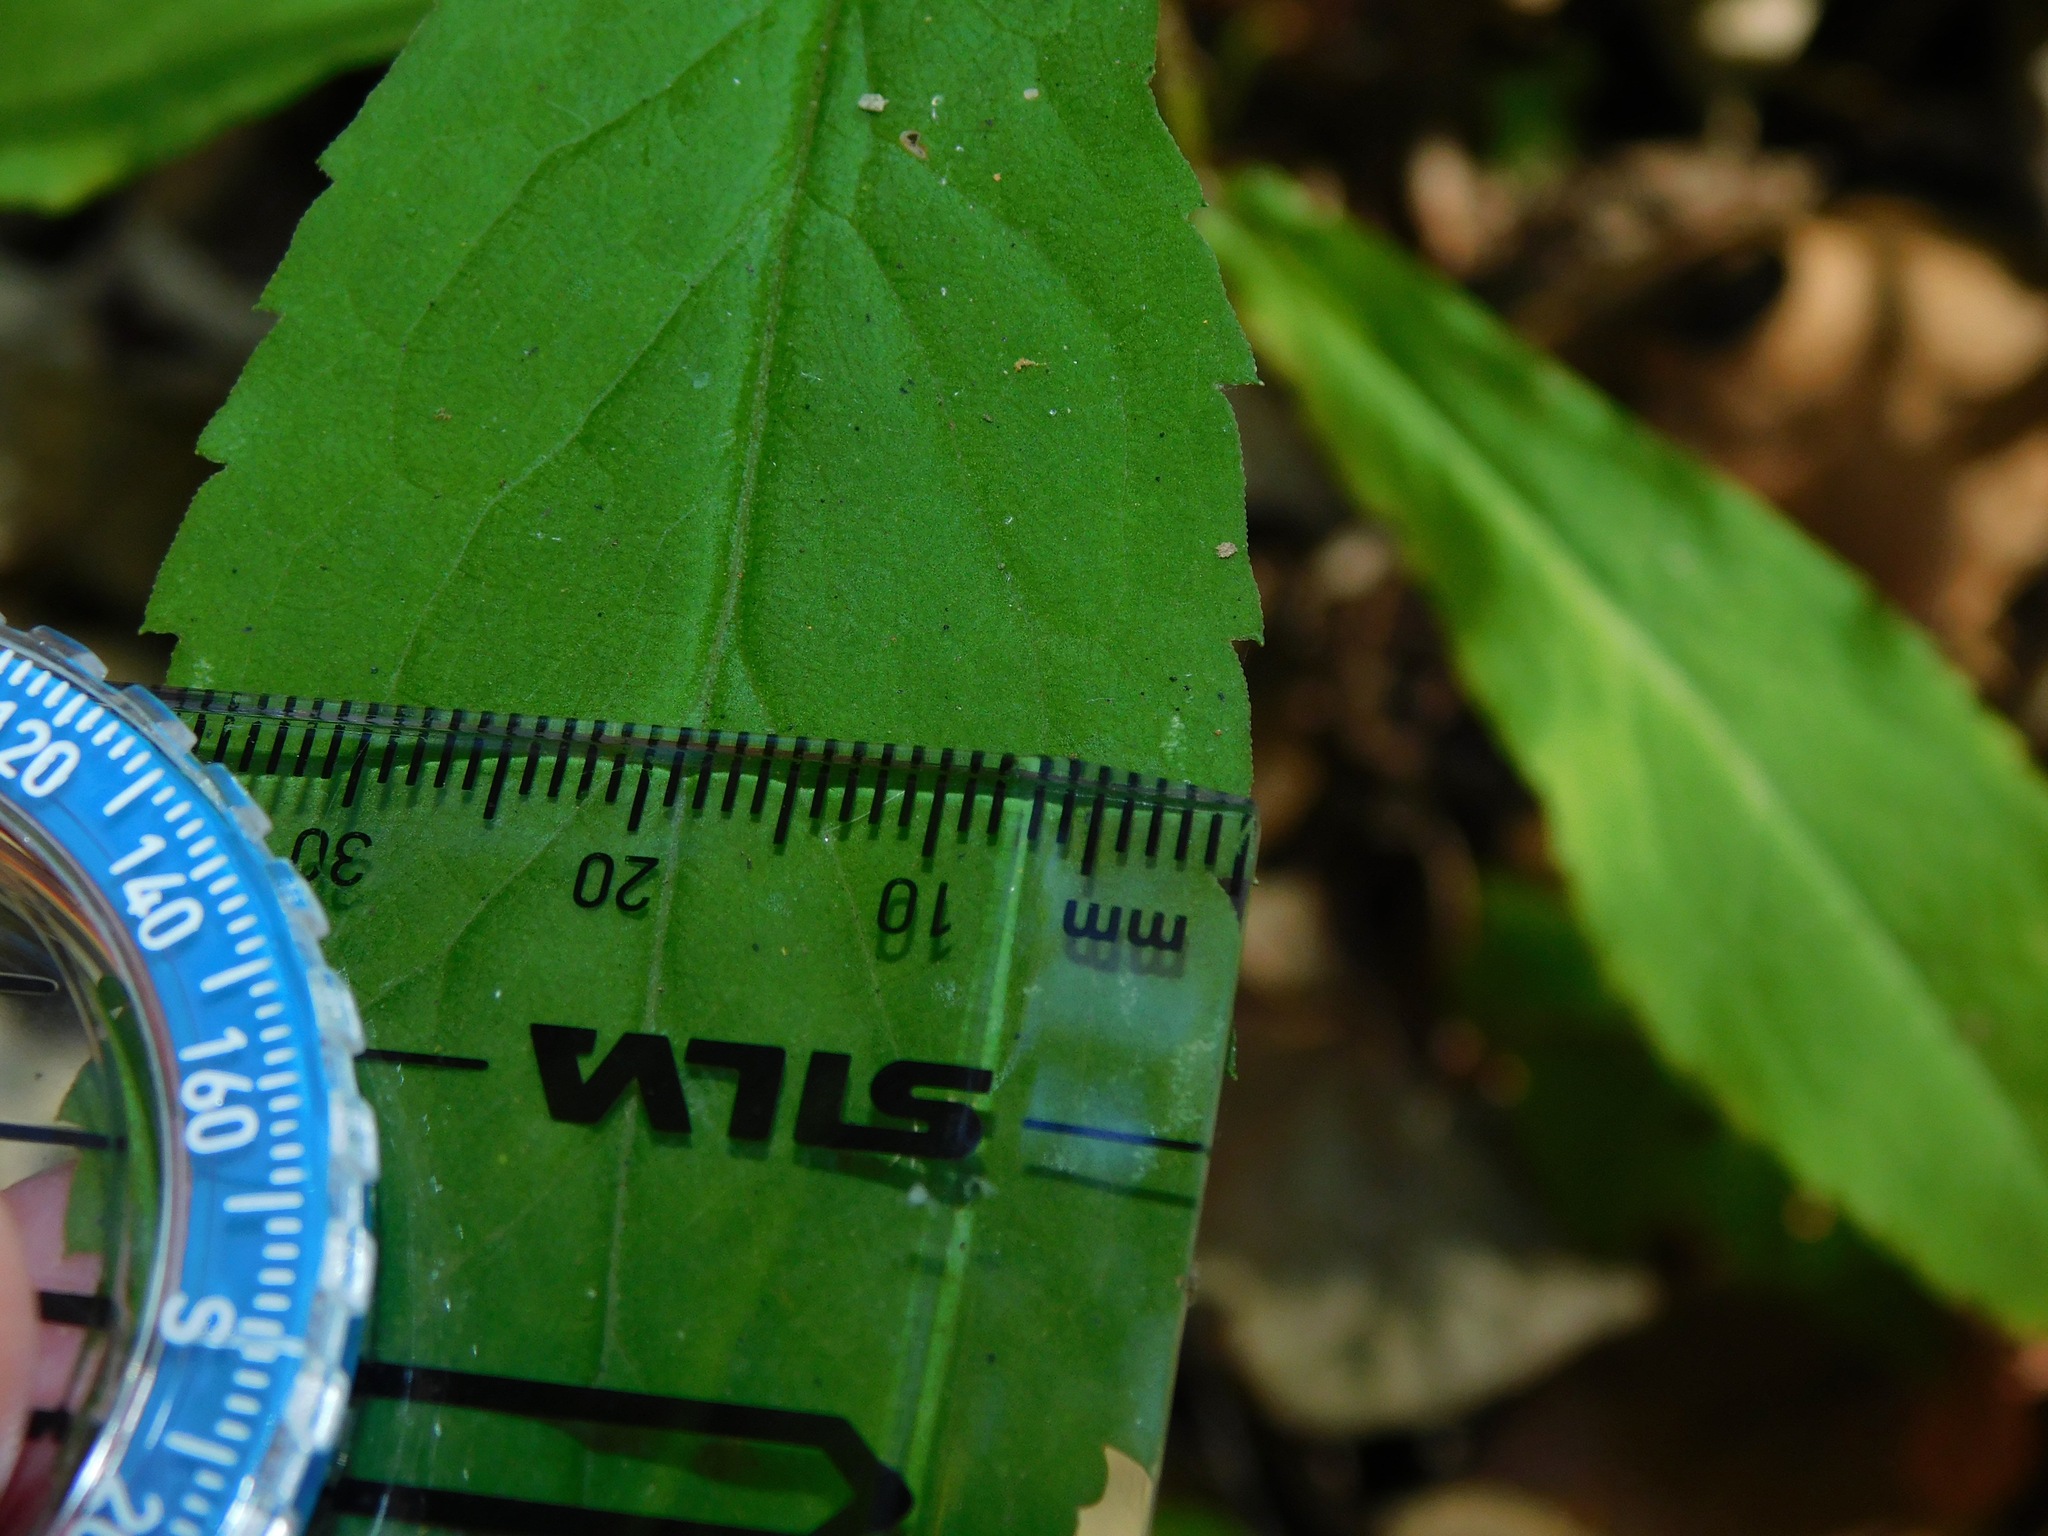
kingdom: Plantae
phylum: Tracheophyta
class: Magnoliopsida
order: Asterales
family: Asteraceae
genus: Solidago
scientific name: Solidago curtisii
